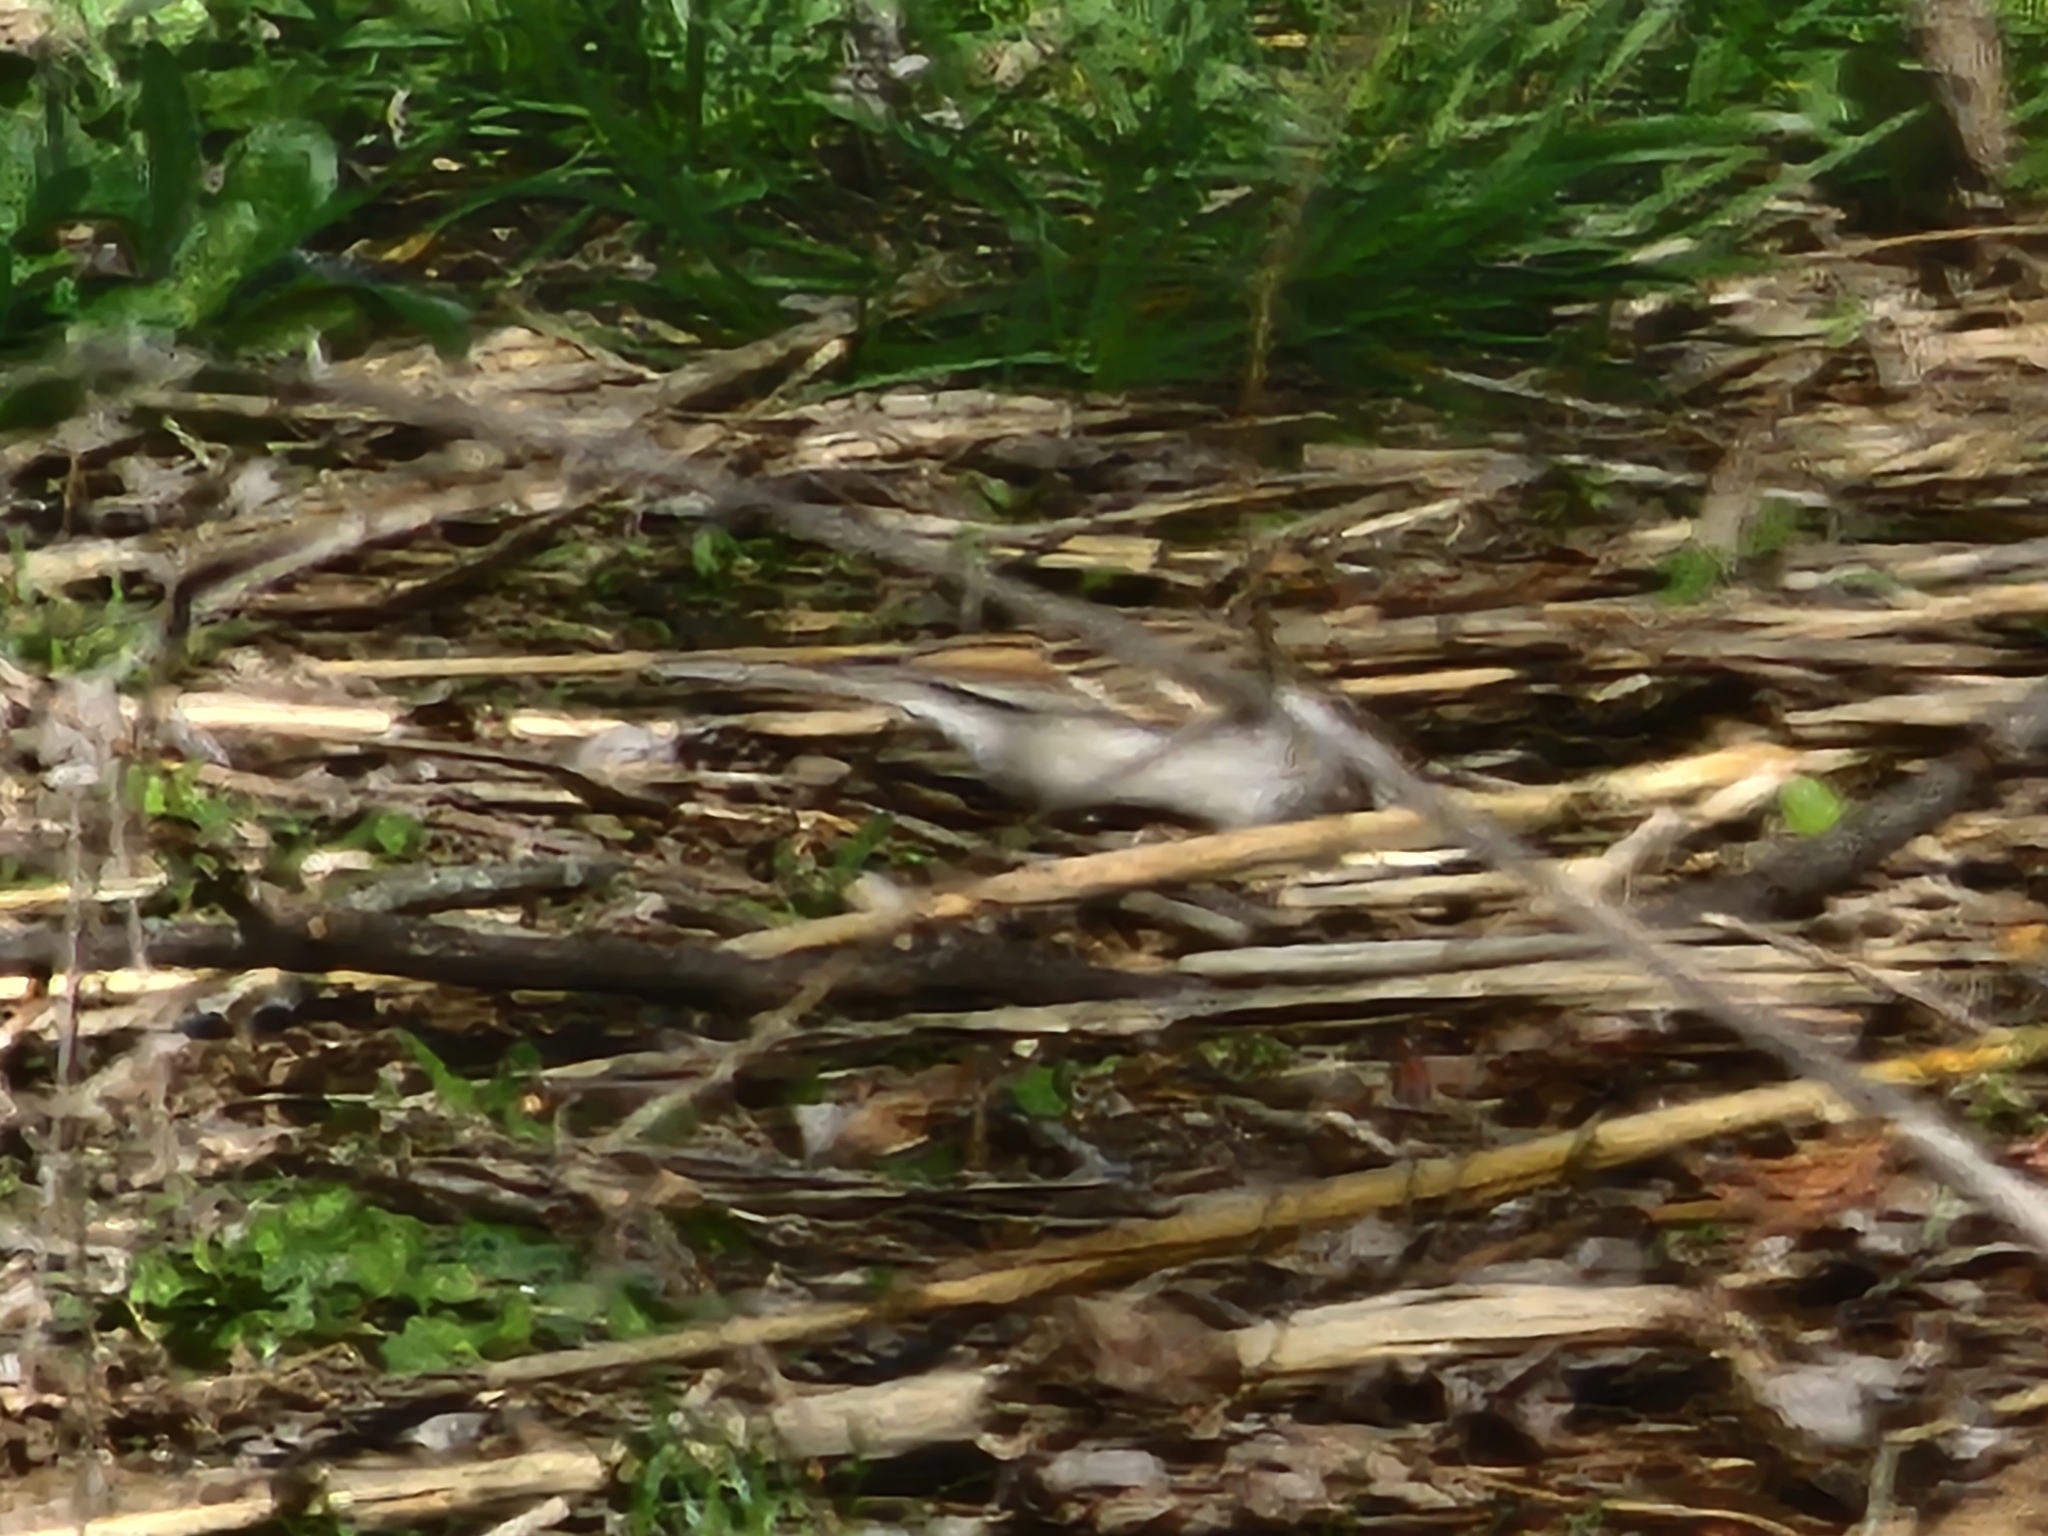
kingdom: Animalia
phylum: Chordata
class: Aves
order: Passeriformes
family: Passerellidae
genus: Spizella
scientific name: Spizella passerina
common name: Chipping sparrow
